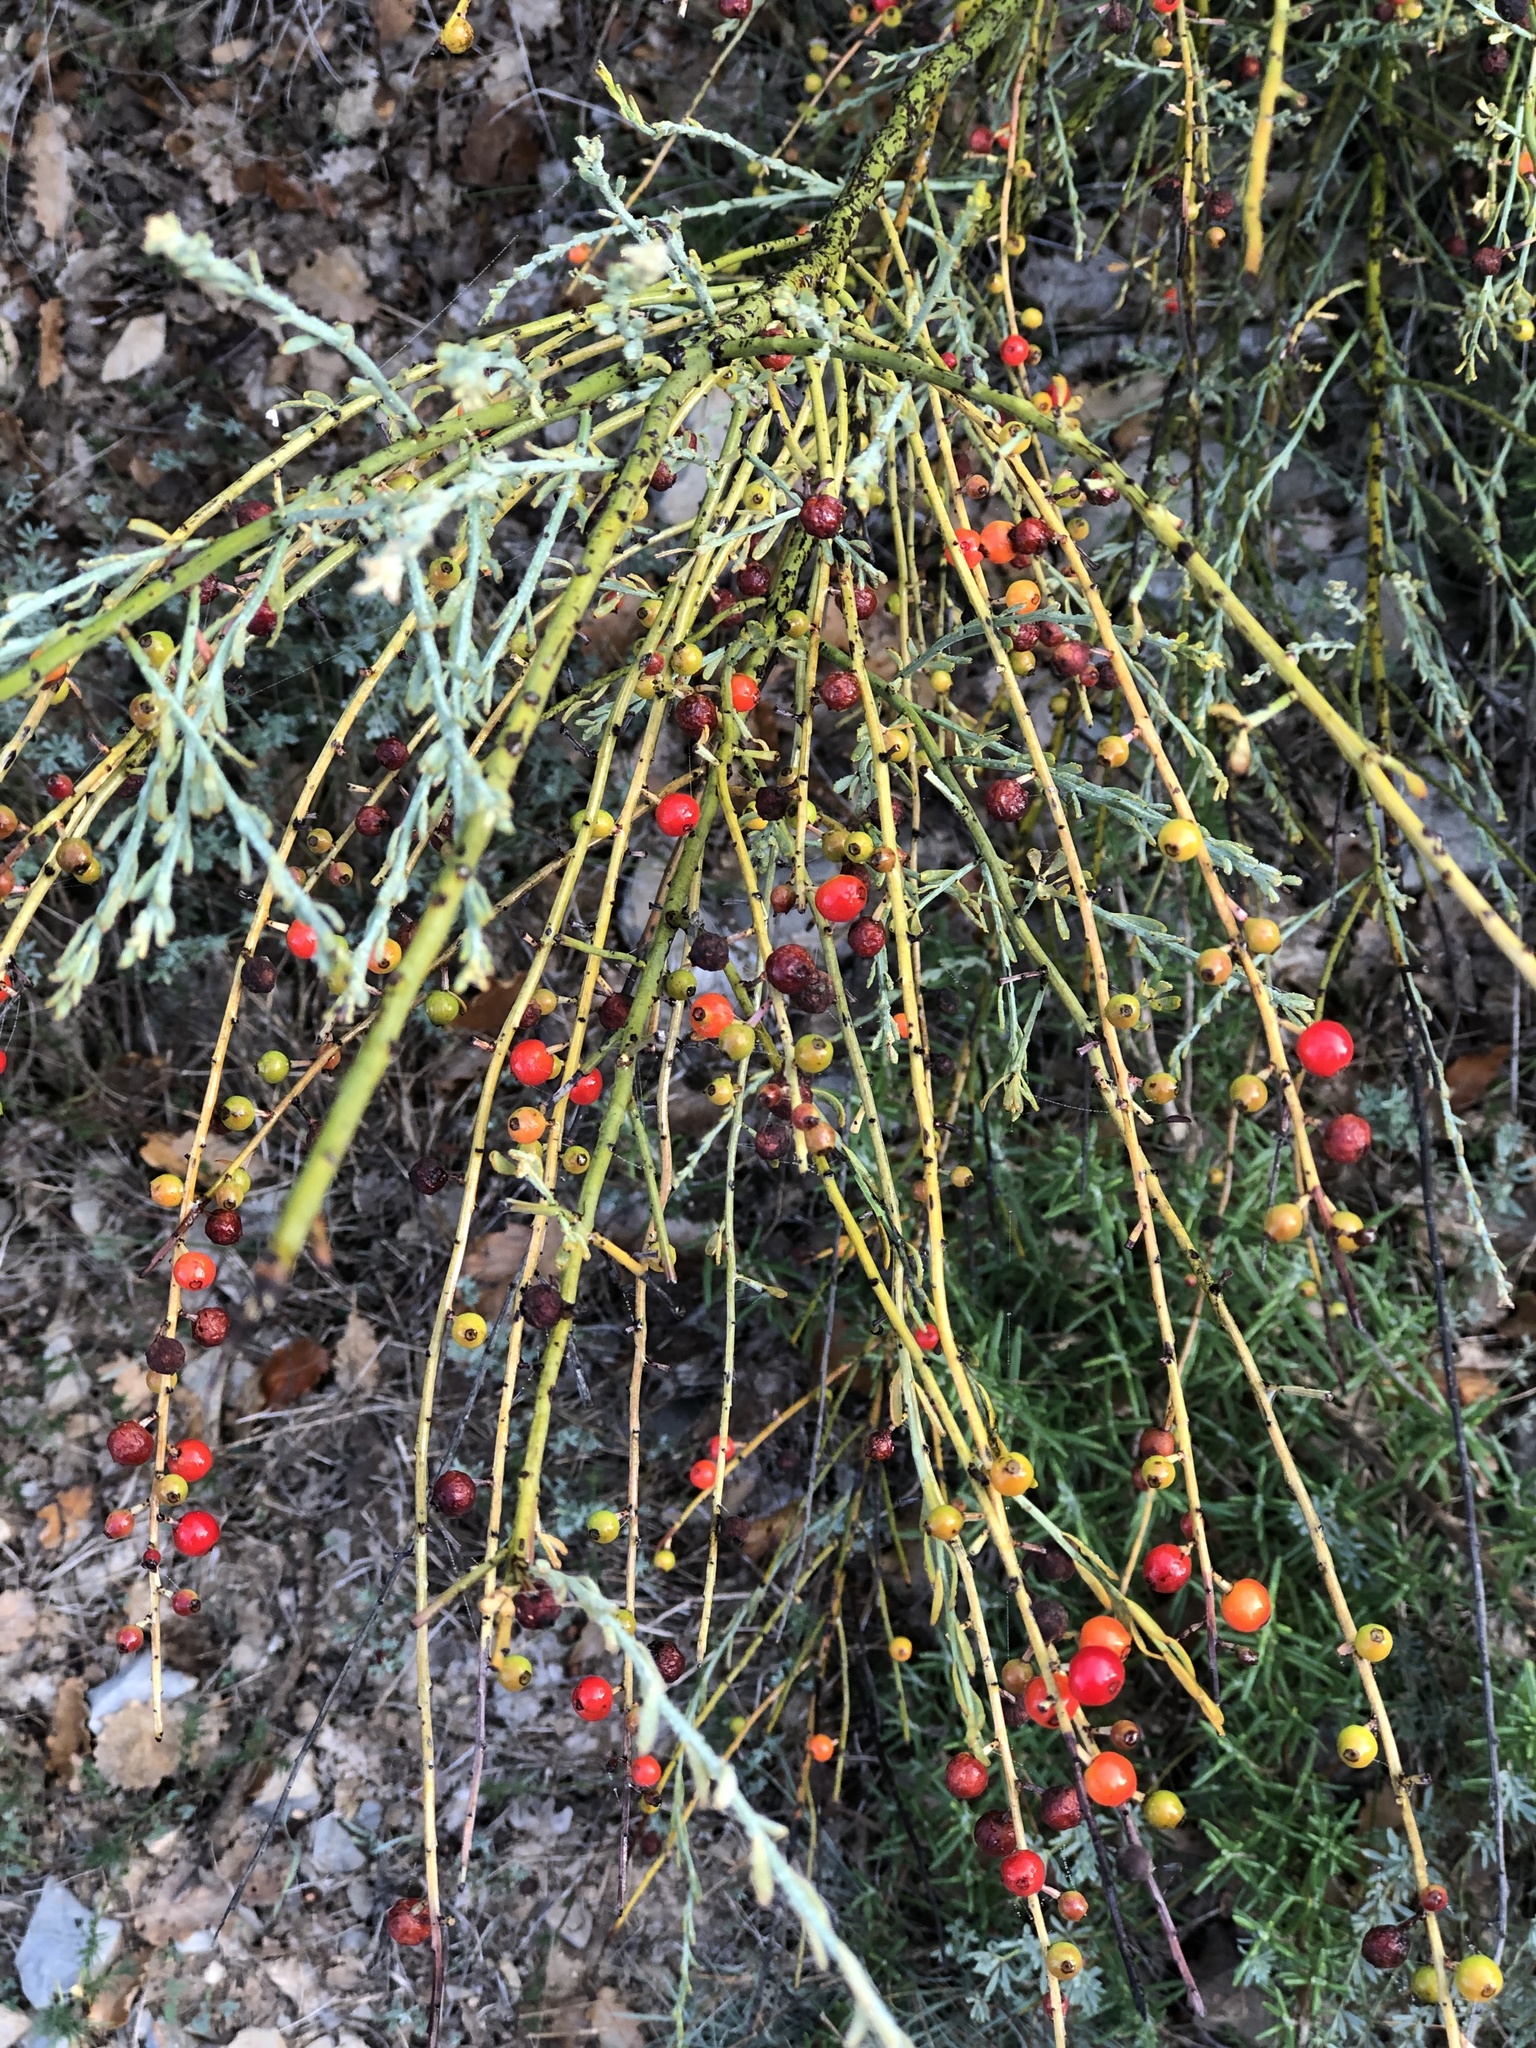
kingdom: Plantae
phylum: Tracheophyta
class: Magnoliopsida
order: Santalales
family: Santalaceae
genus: Osyris
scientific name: Osyris alba
